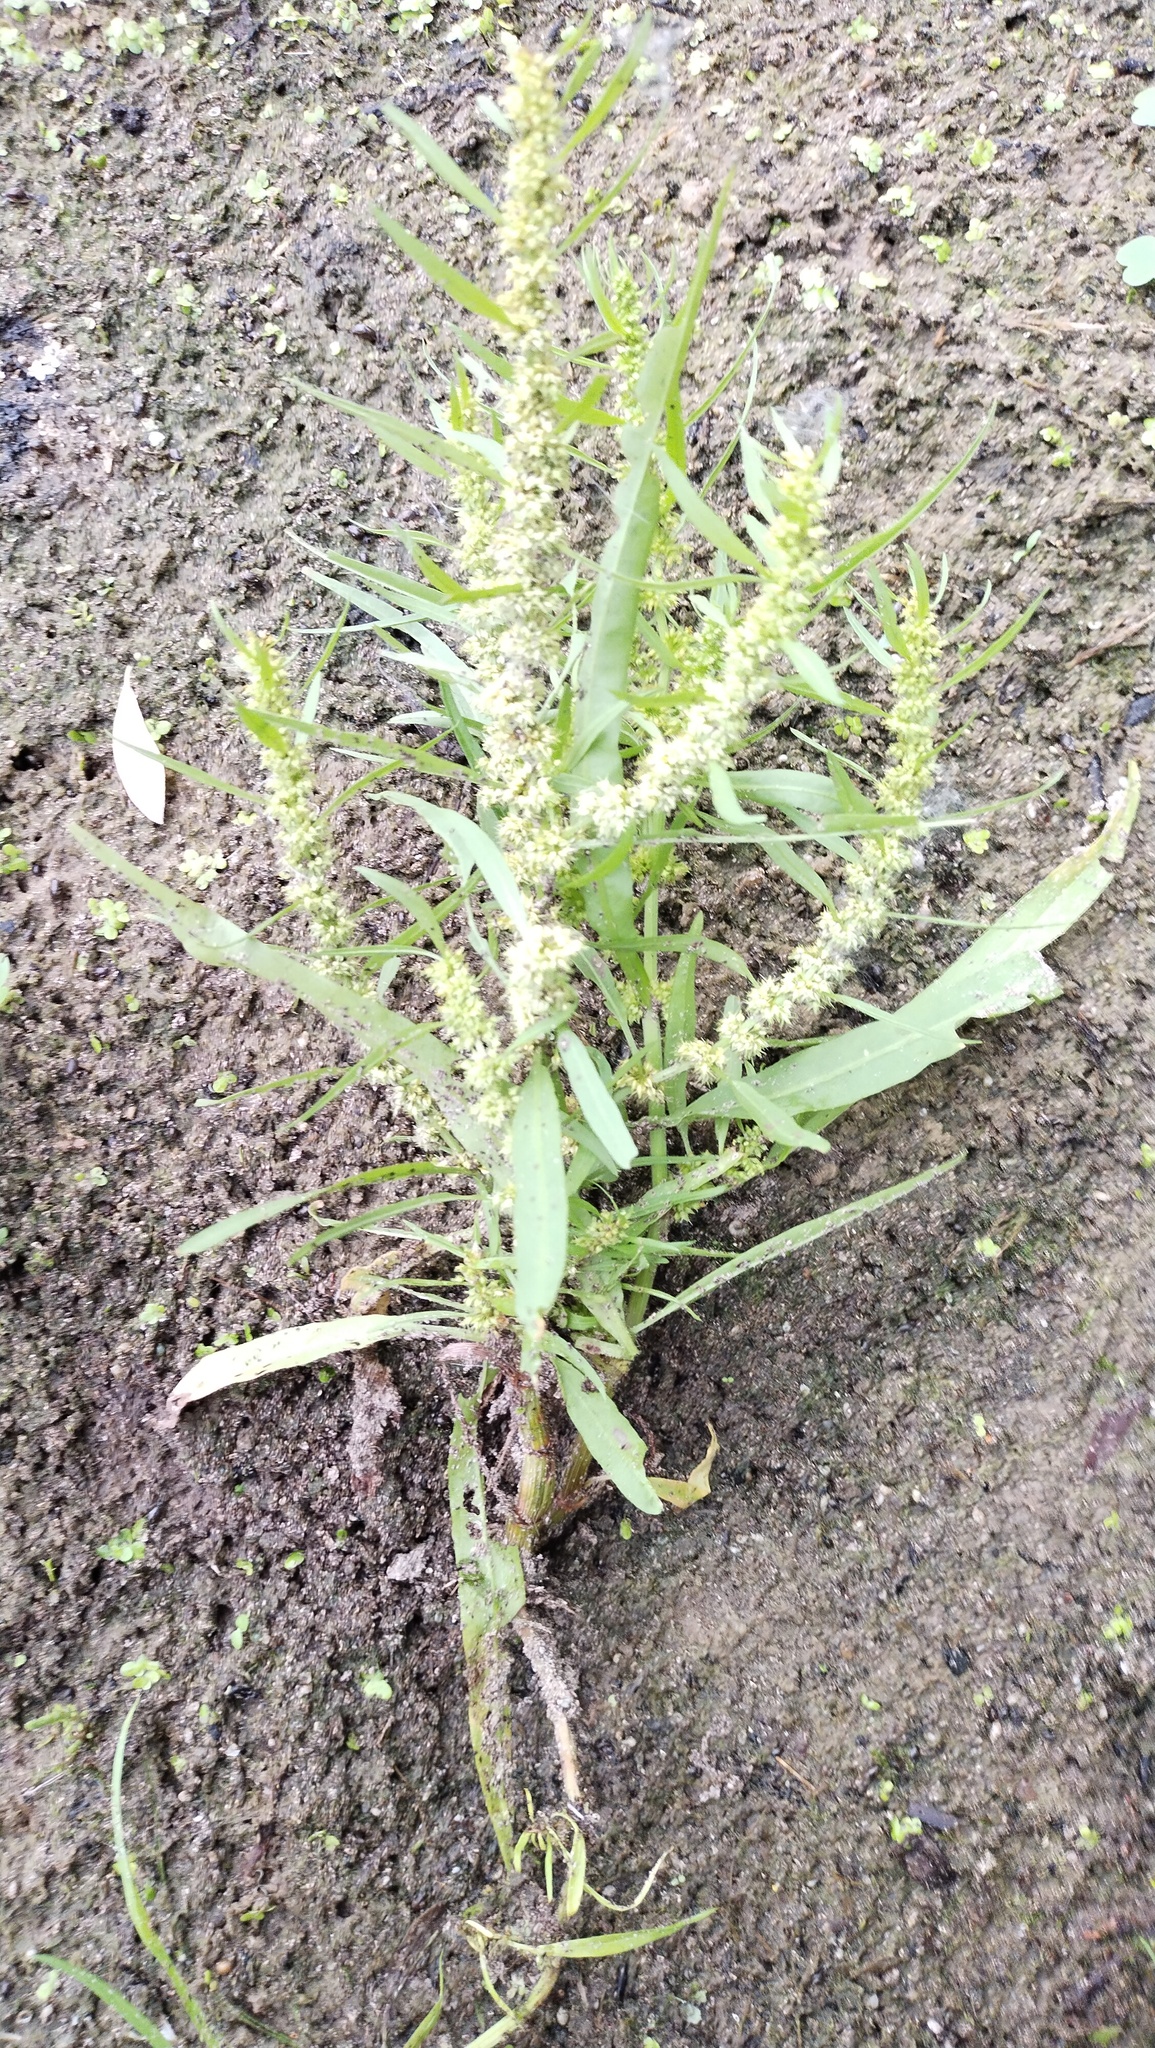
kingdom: Plantae
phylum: Tracheophyta
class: Magnoliopsida
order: Caryophyllales
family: Polygonaceae
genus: Rumex
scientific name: Rumex maritimus
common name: Golden dock
